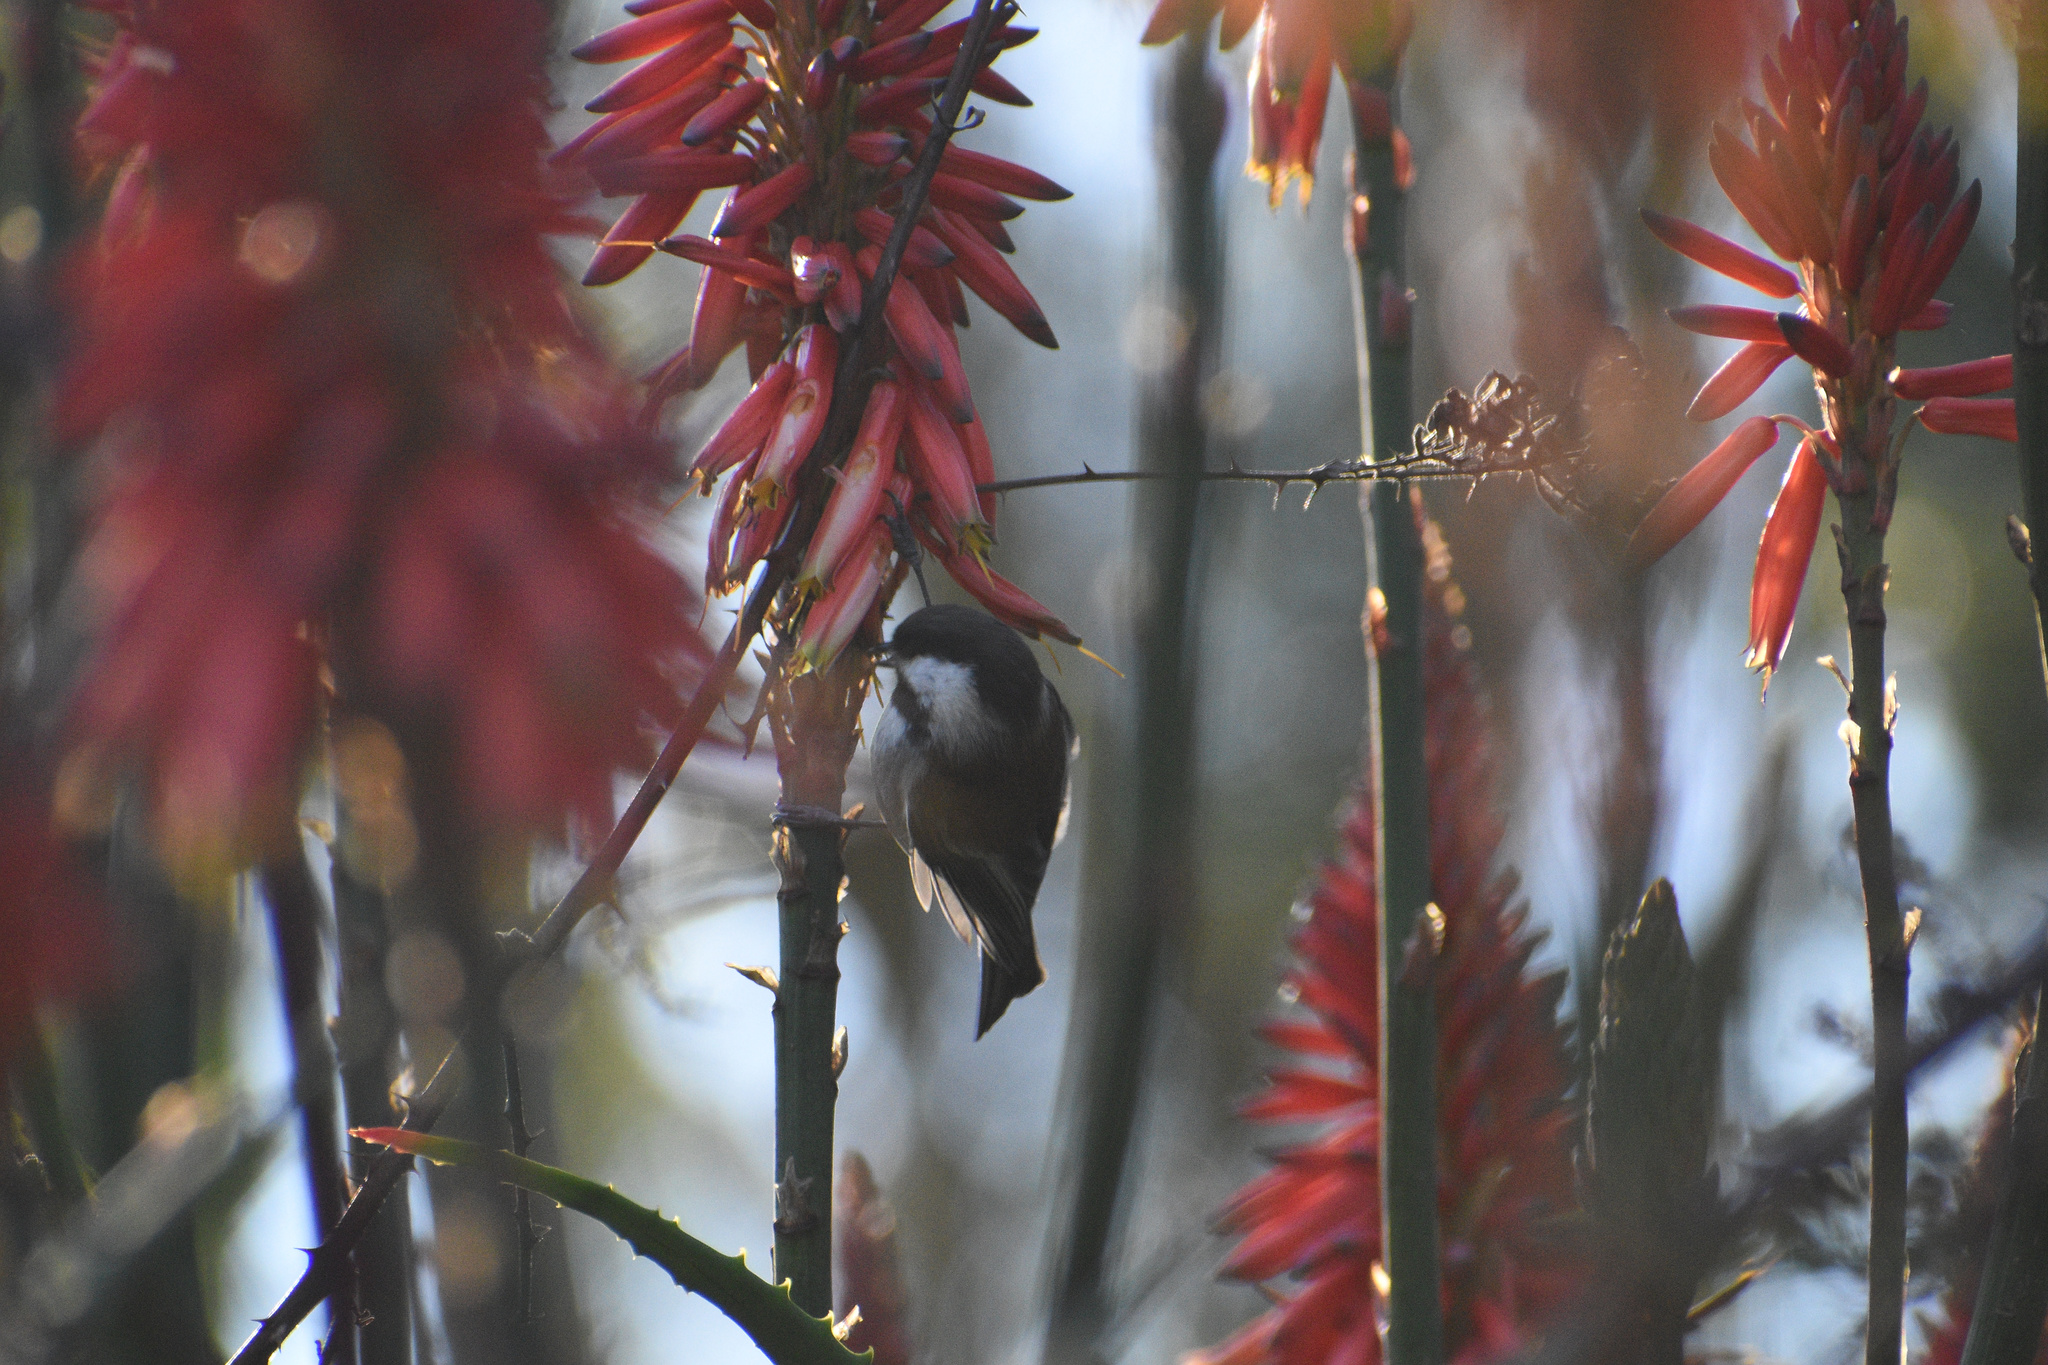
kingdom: Animalia
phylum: Chordata
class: Aves
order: Passeriformes
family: Paridae
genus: Poecile
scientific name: Poecile rufescens
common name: Chestnut-backed chickadee
